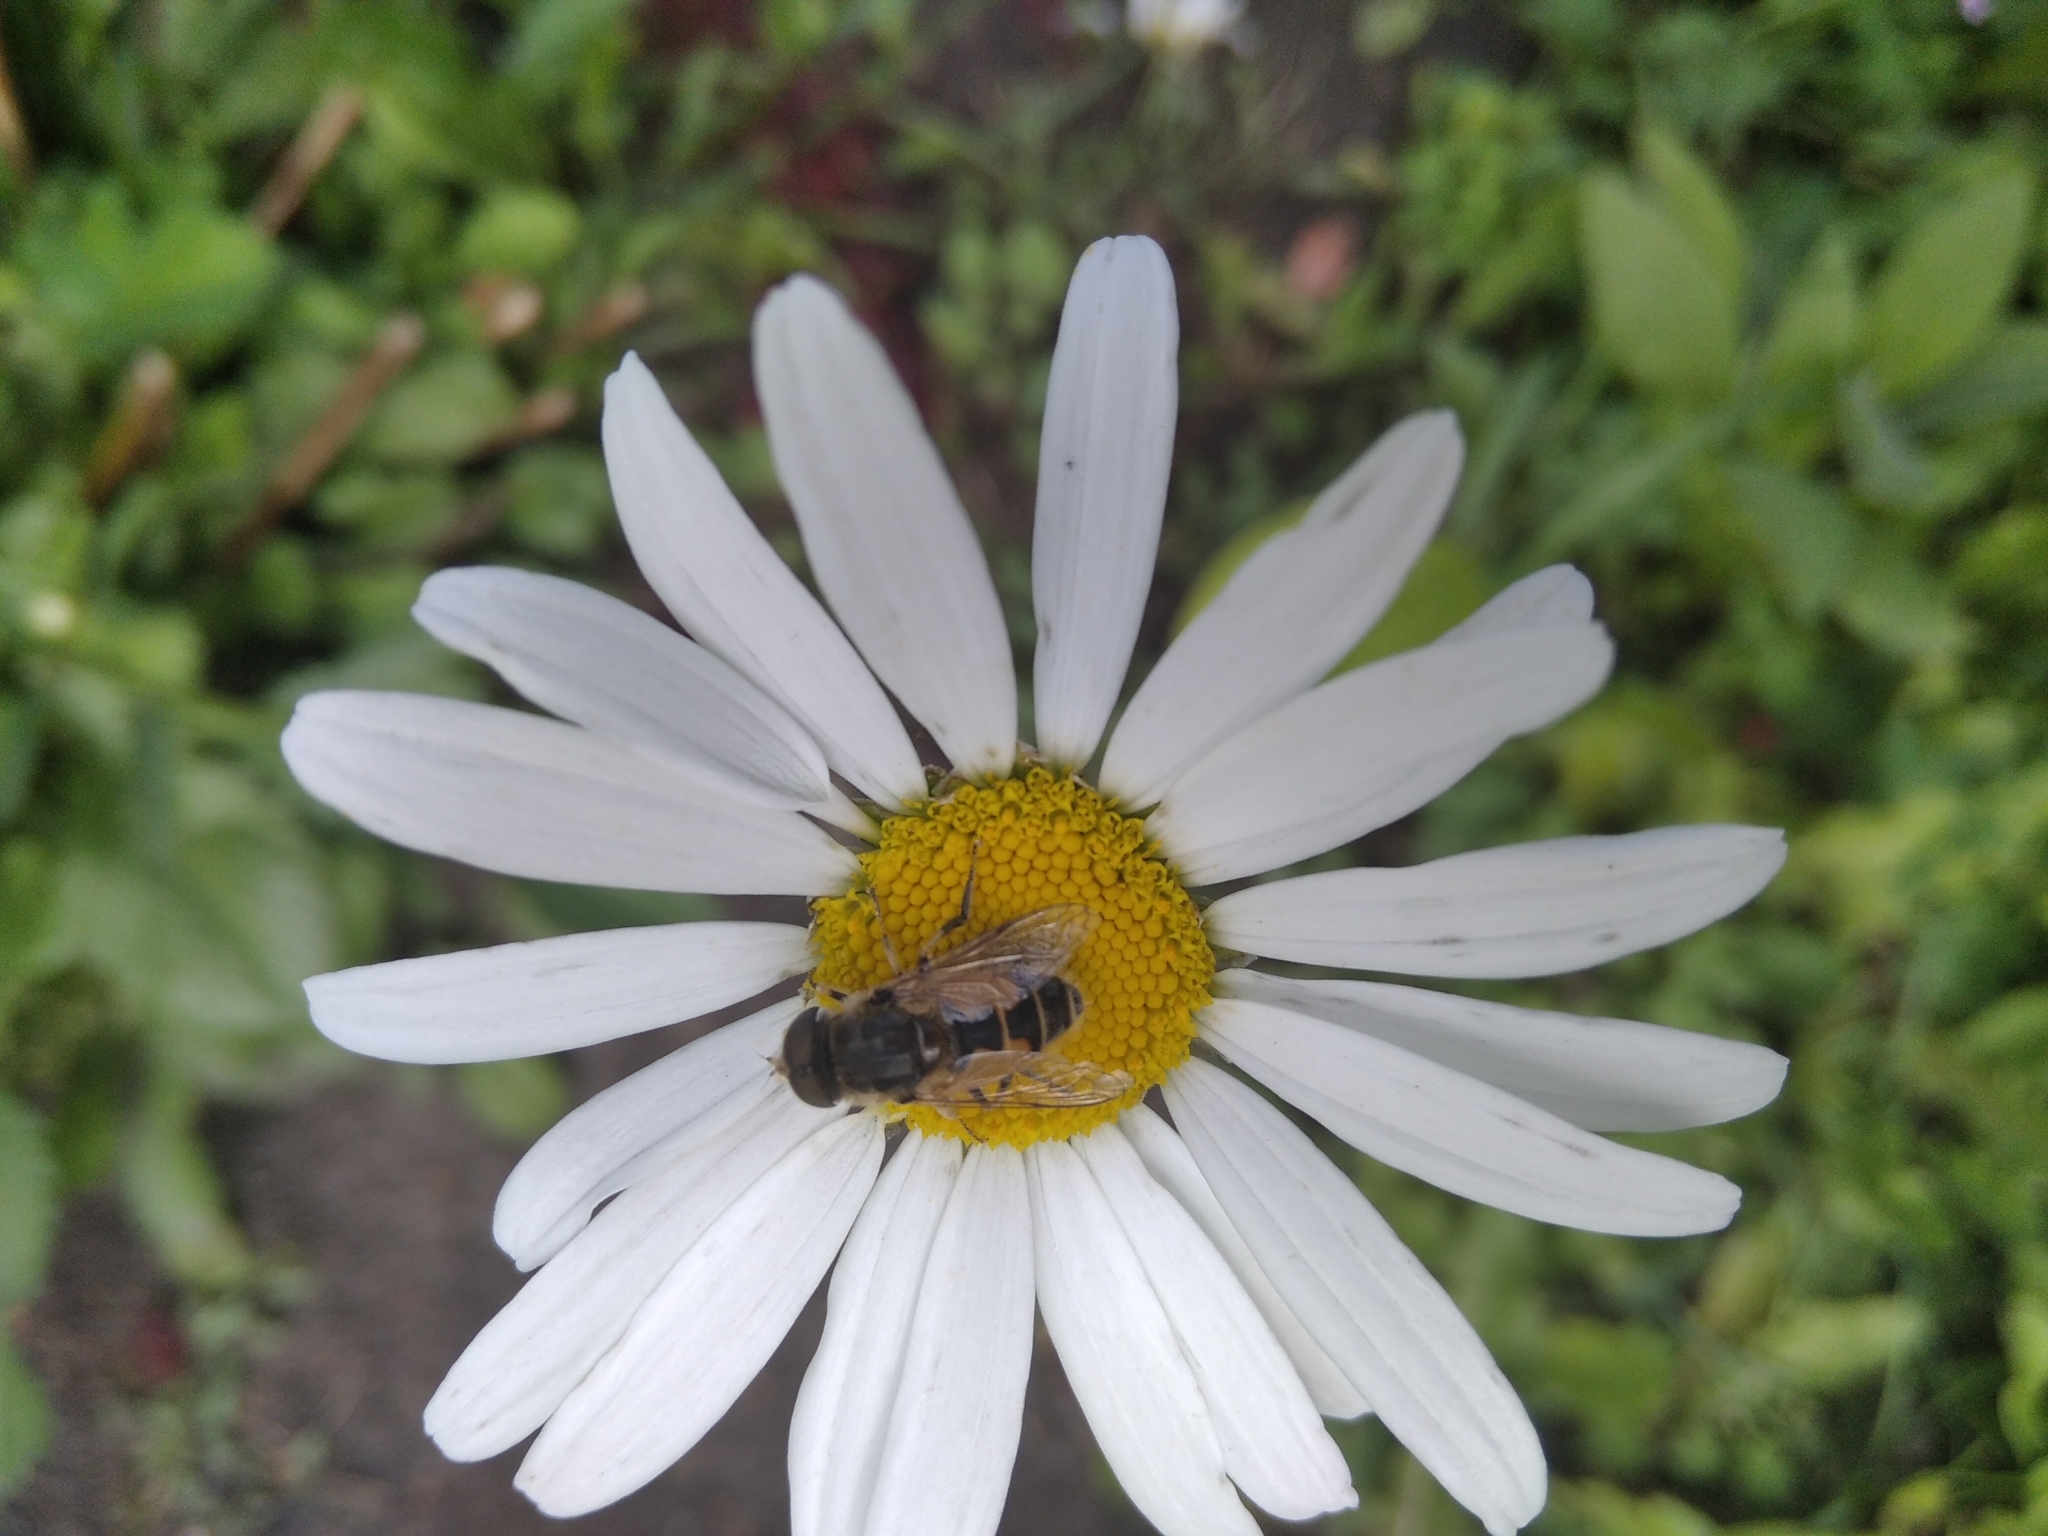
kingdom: Animalia
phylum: Arthropoda
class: Insecta
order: Diptera
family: Syrphidae
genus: Eristalis
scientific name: Eristalis arbustorum
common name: Hover fly
